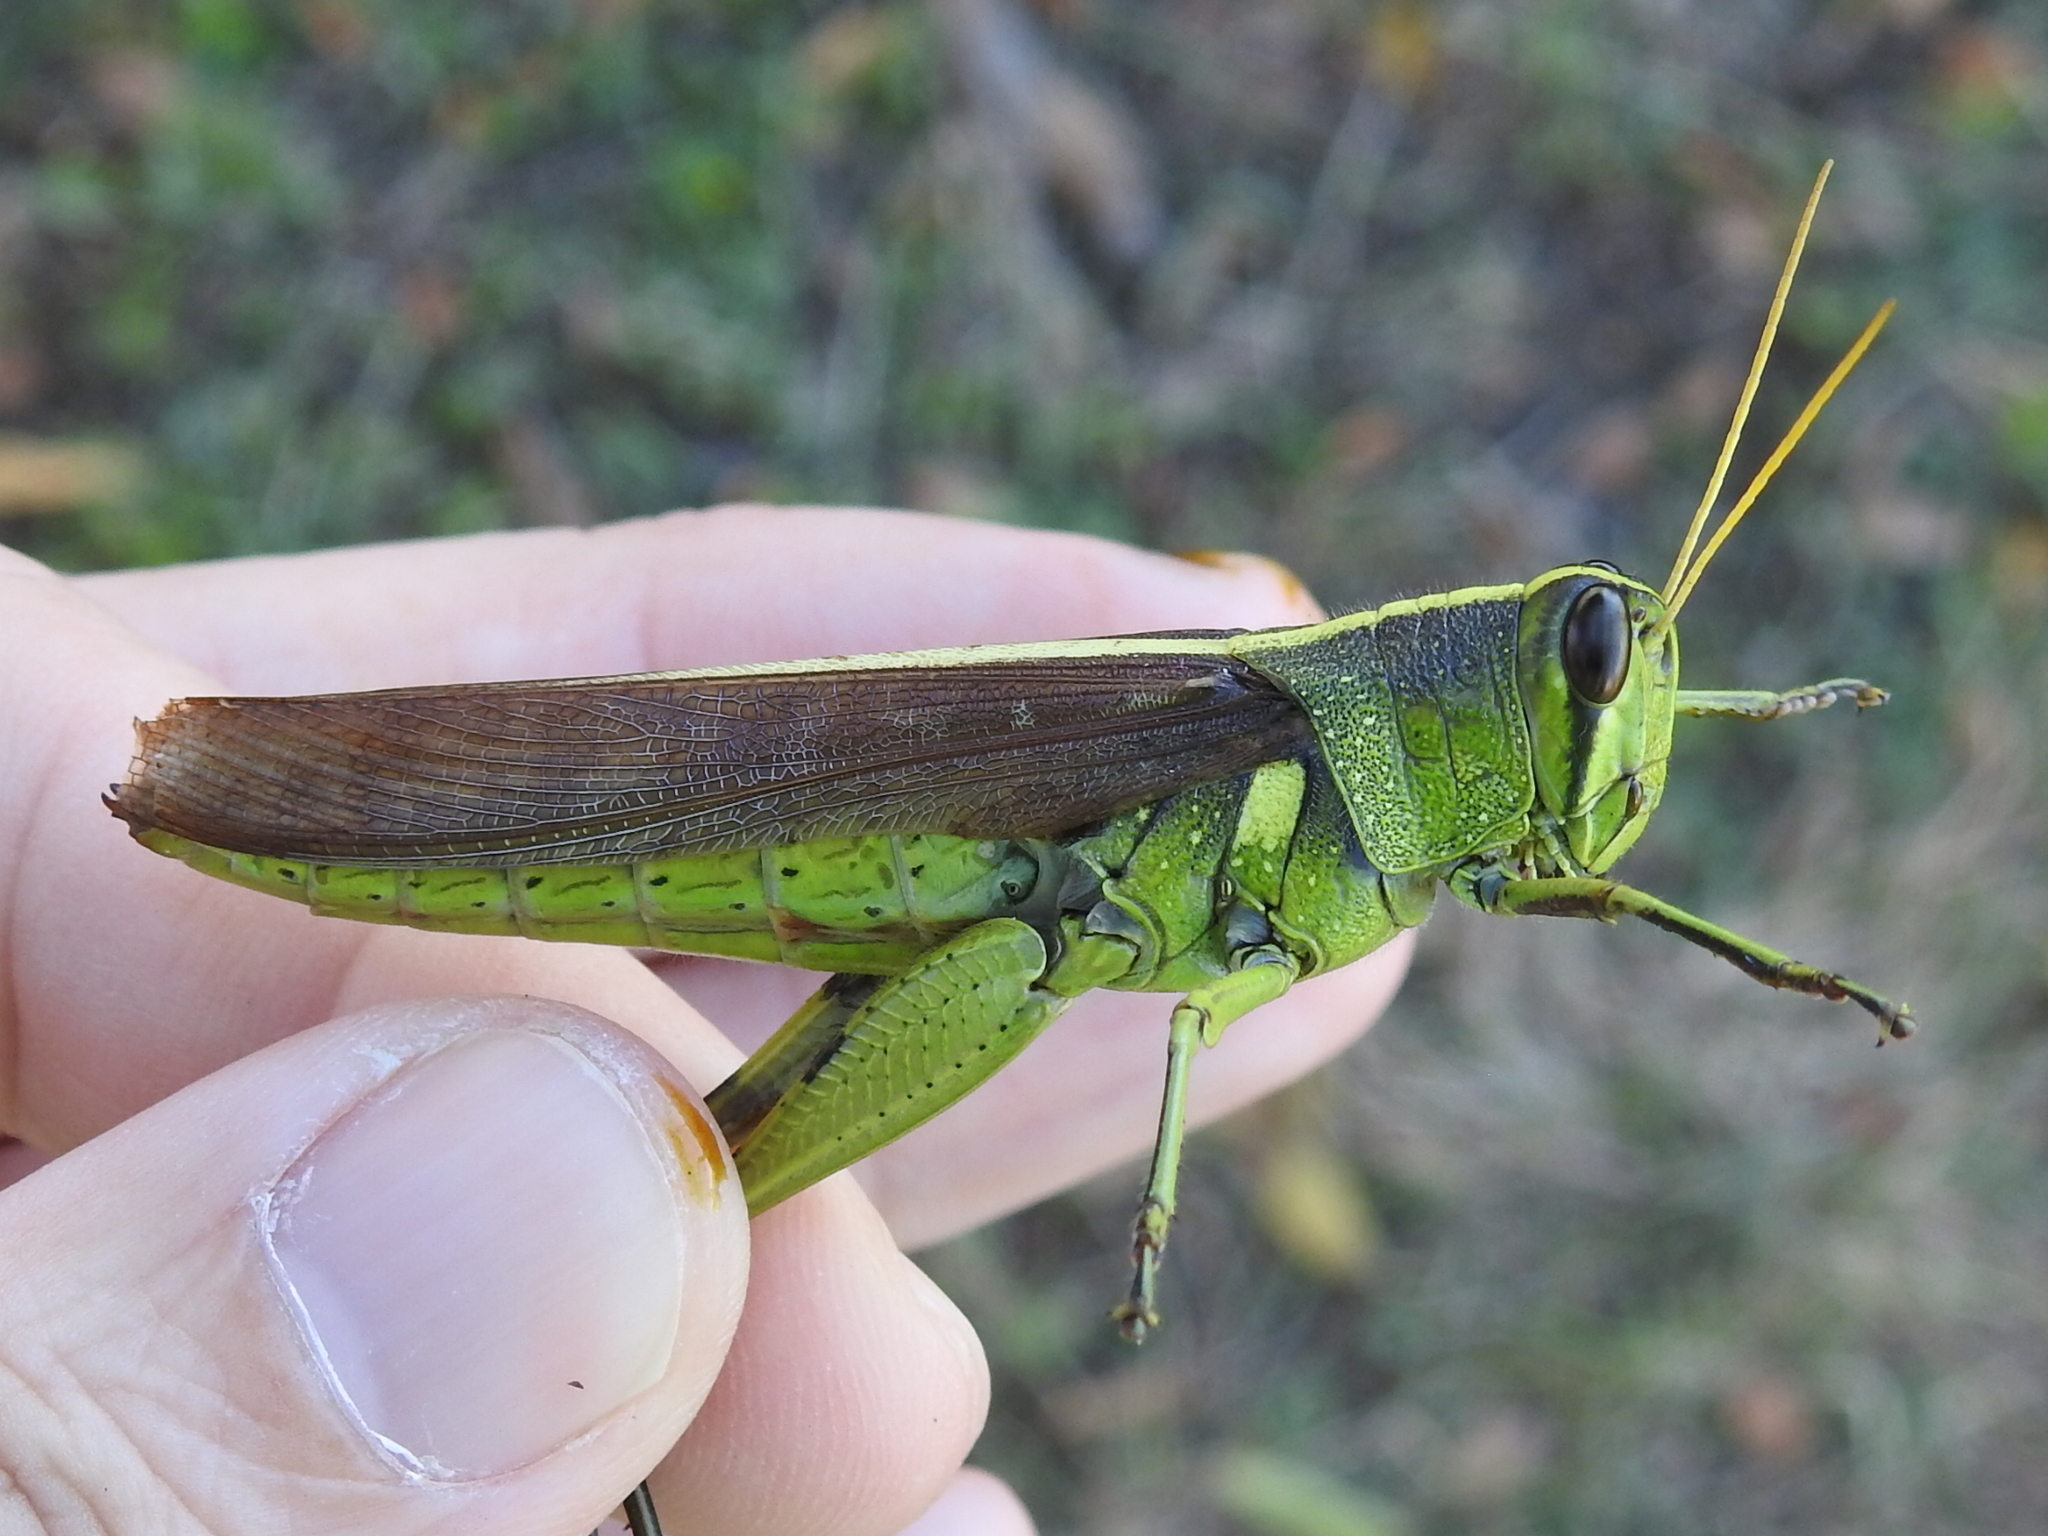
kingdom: Animalia
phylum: Arthropoda
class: Insecta
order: Orthoptera
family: Acrididae
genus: Schistocerca
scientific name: Schistocerca obscura
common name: Obscure bird grasshopper
